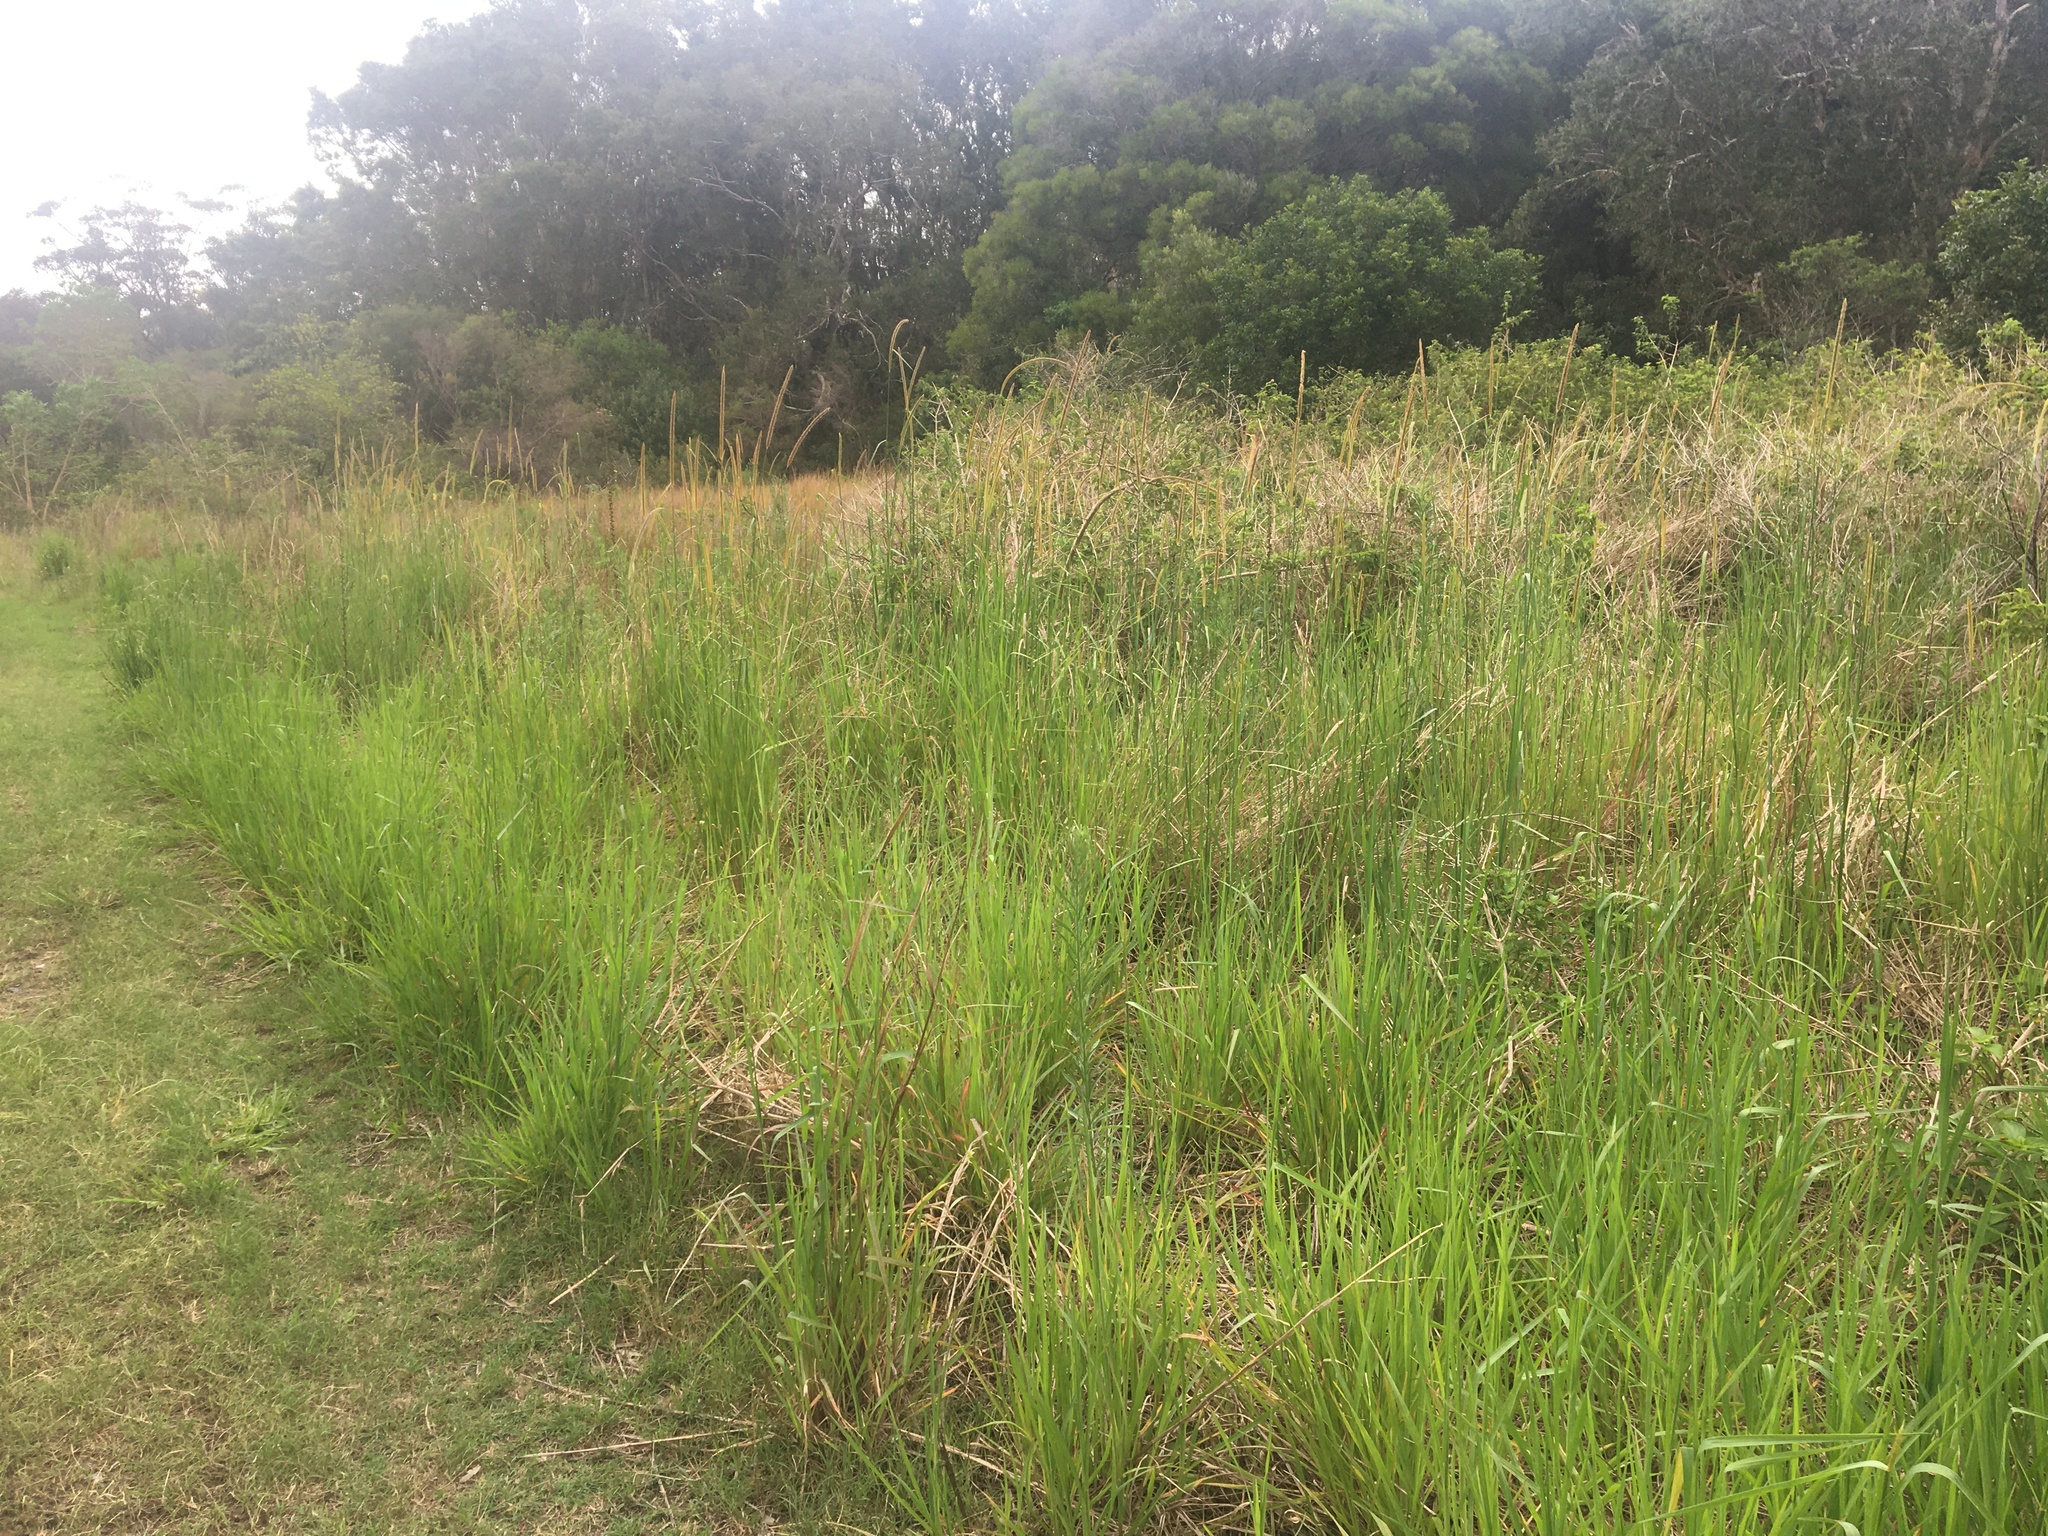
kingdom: Plantae
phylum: Tracheophyta
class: Liliopsida
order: Poales
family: Poaceae
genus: Setaria
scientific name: Setaria sphacelata
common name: African bristlegrass
